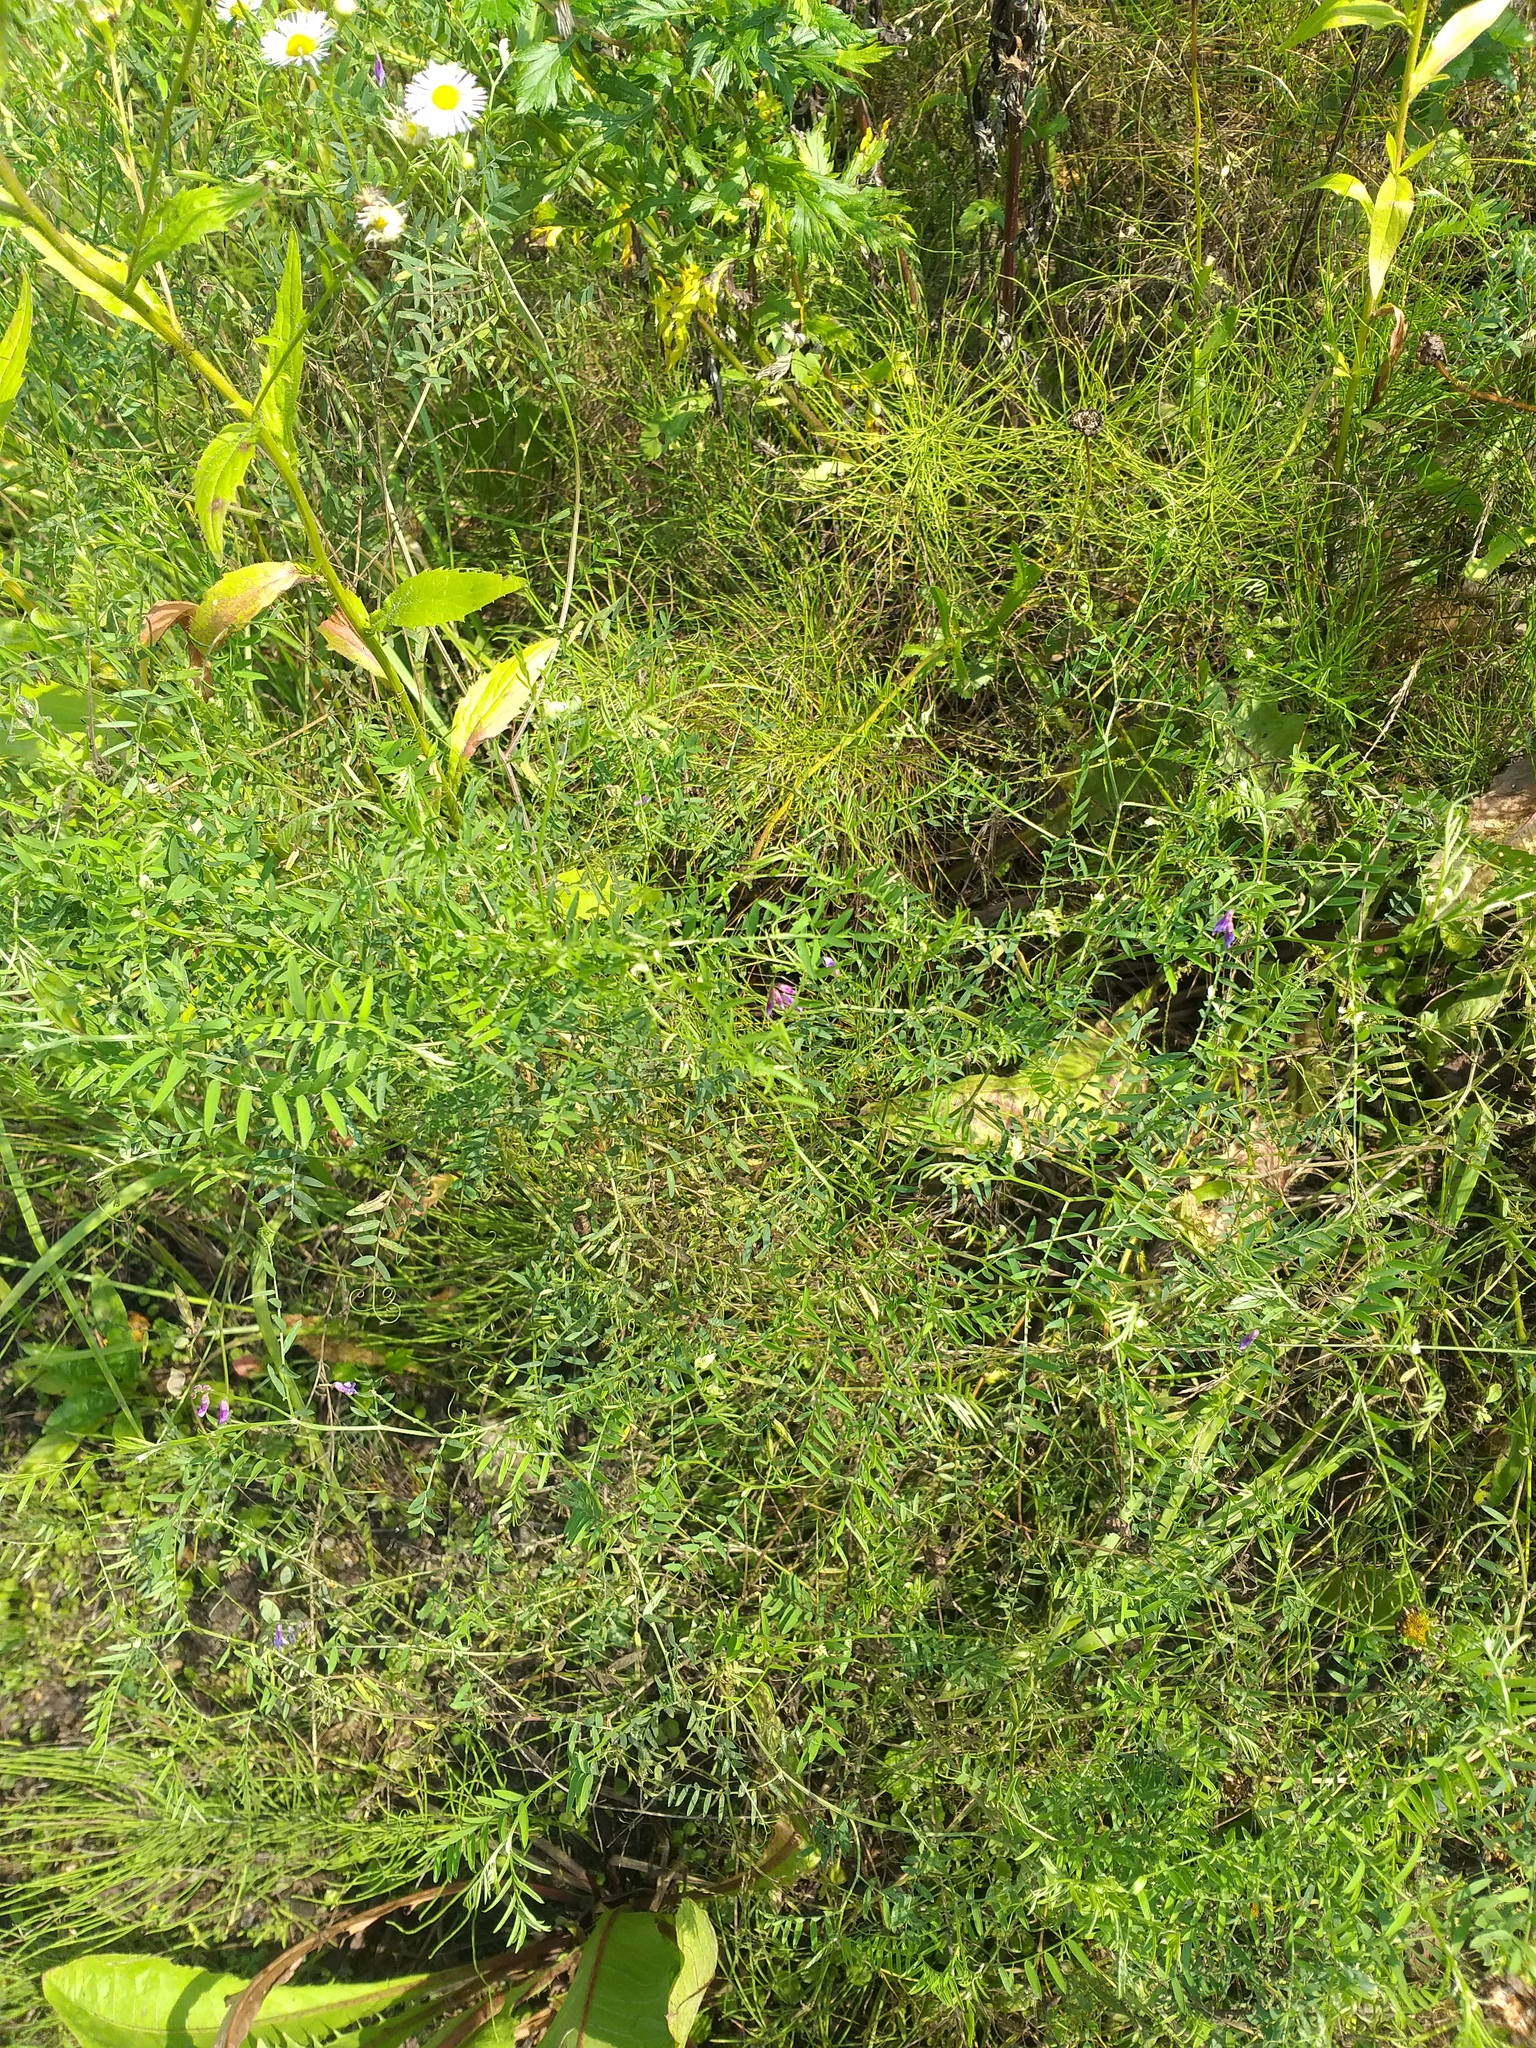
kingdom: Plantae
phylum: Tracheophyta
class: Magnoliopsida
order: Fabales
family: Fabaceae
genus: Vicia
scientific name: Vicia cracca
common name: Bird vetch
